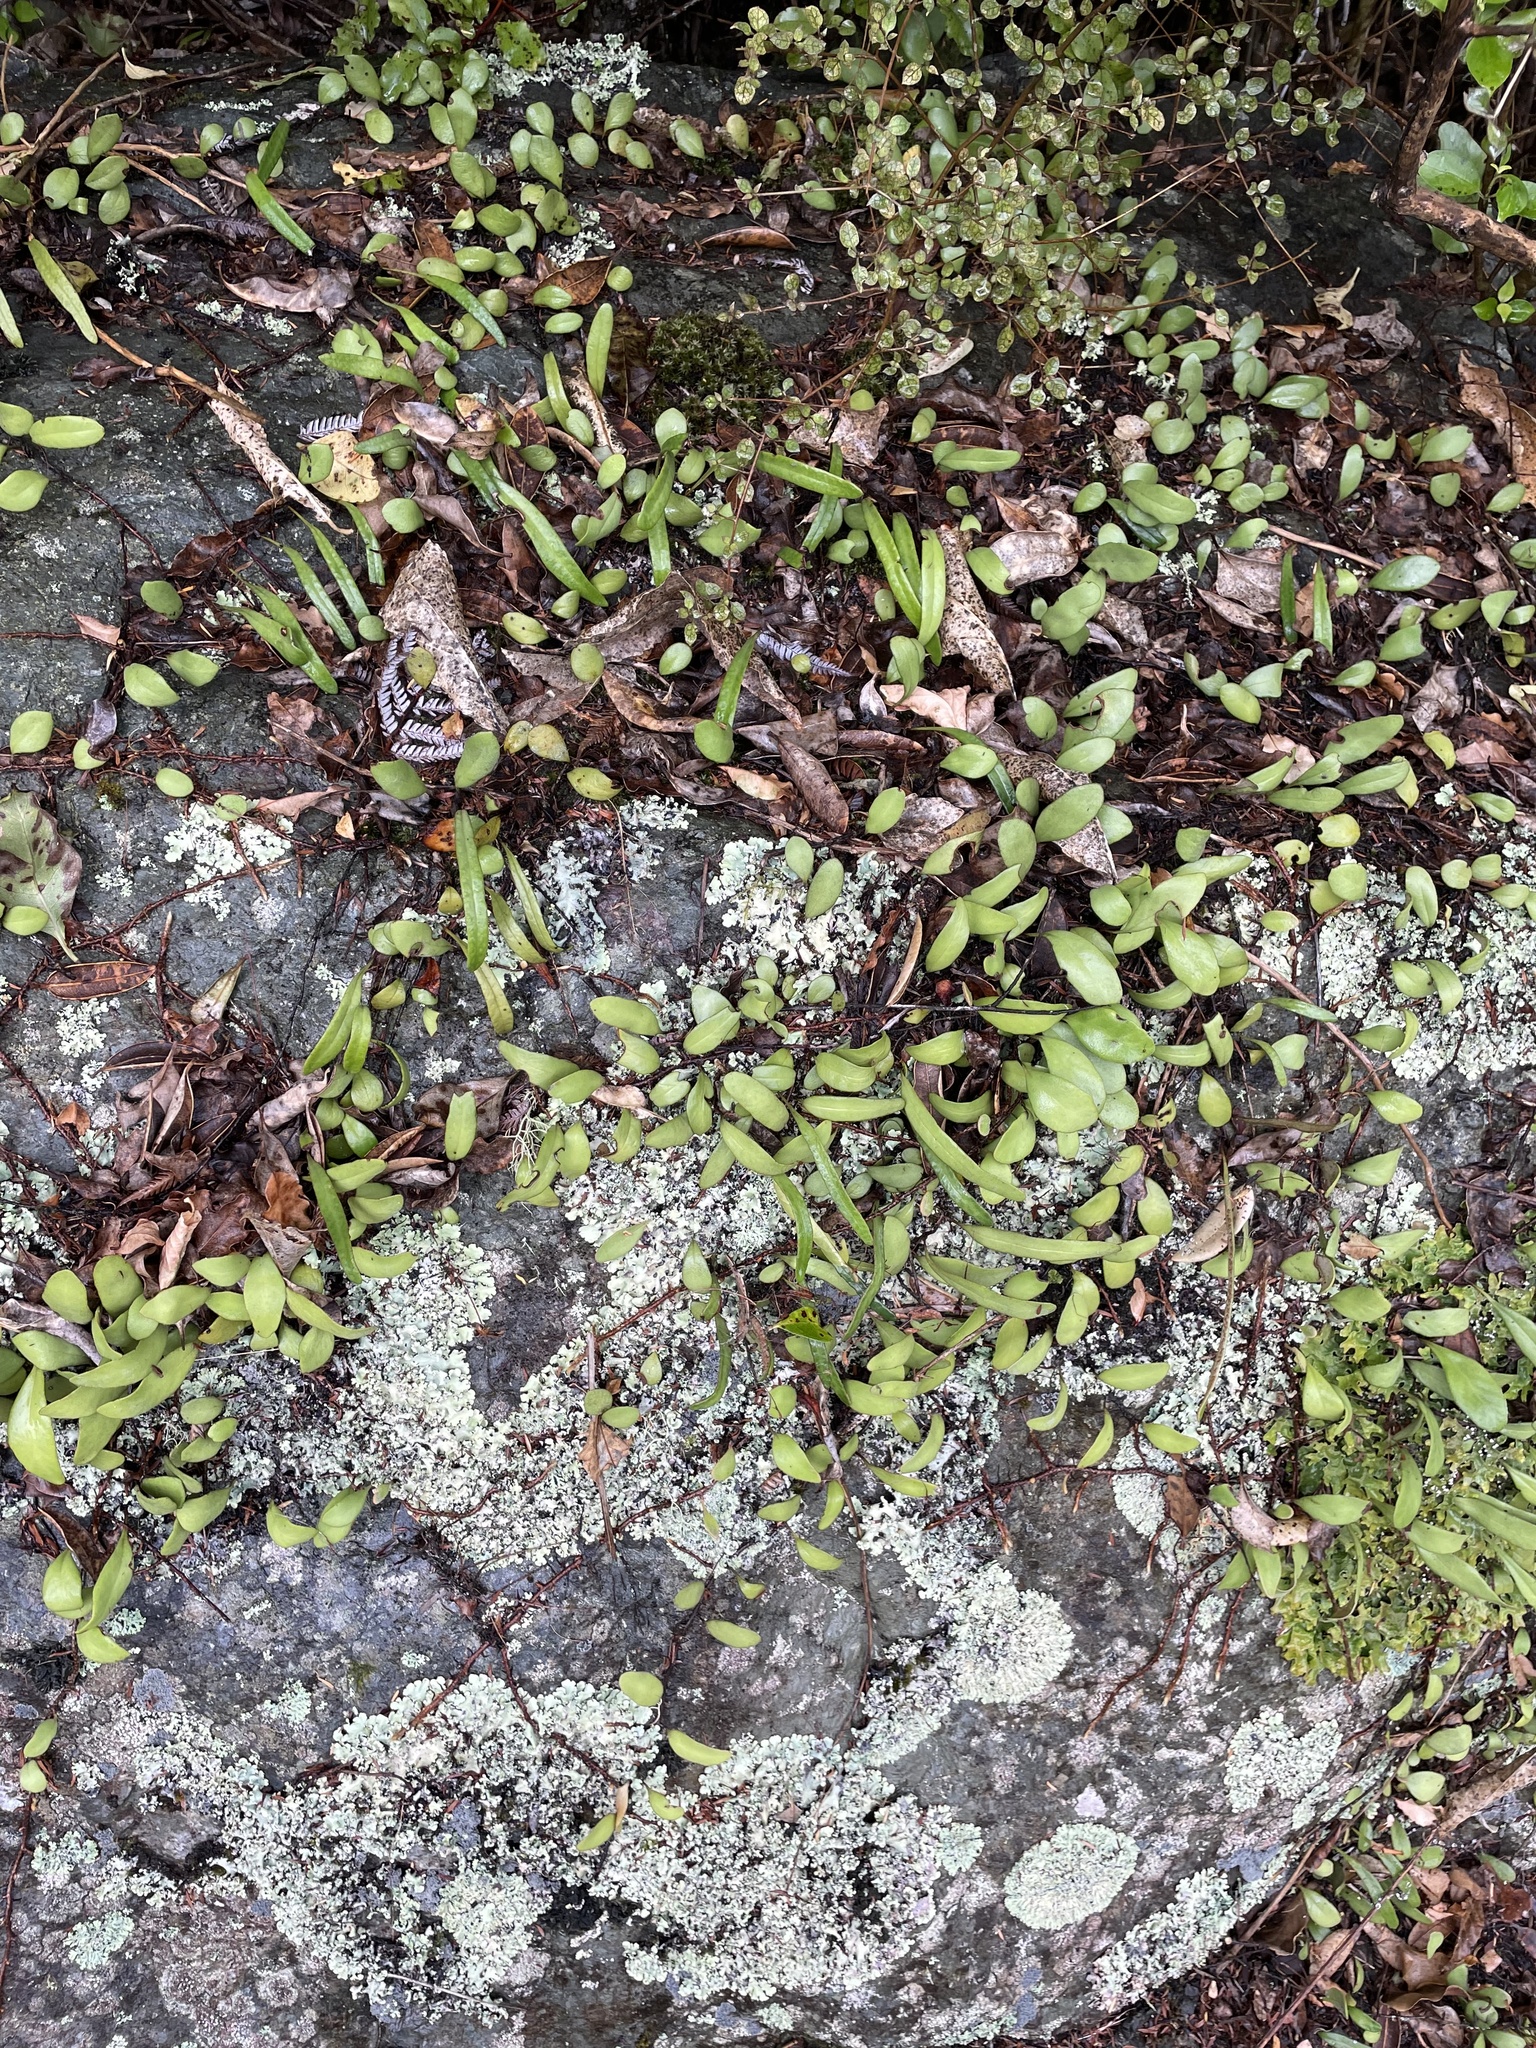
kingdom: Plantae
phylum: Tracheophyta
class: Polypodiopsida
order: Polypodiales
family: Polypodiaceae
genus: Pyrrosia
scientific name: Pyrrosia eleagnifolia
